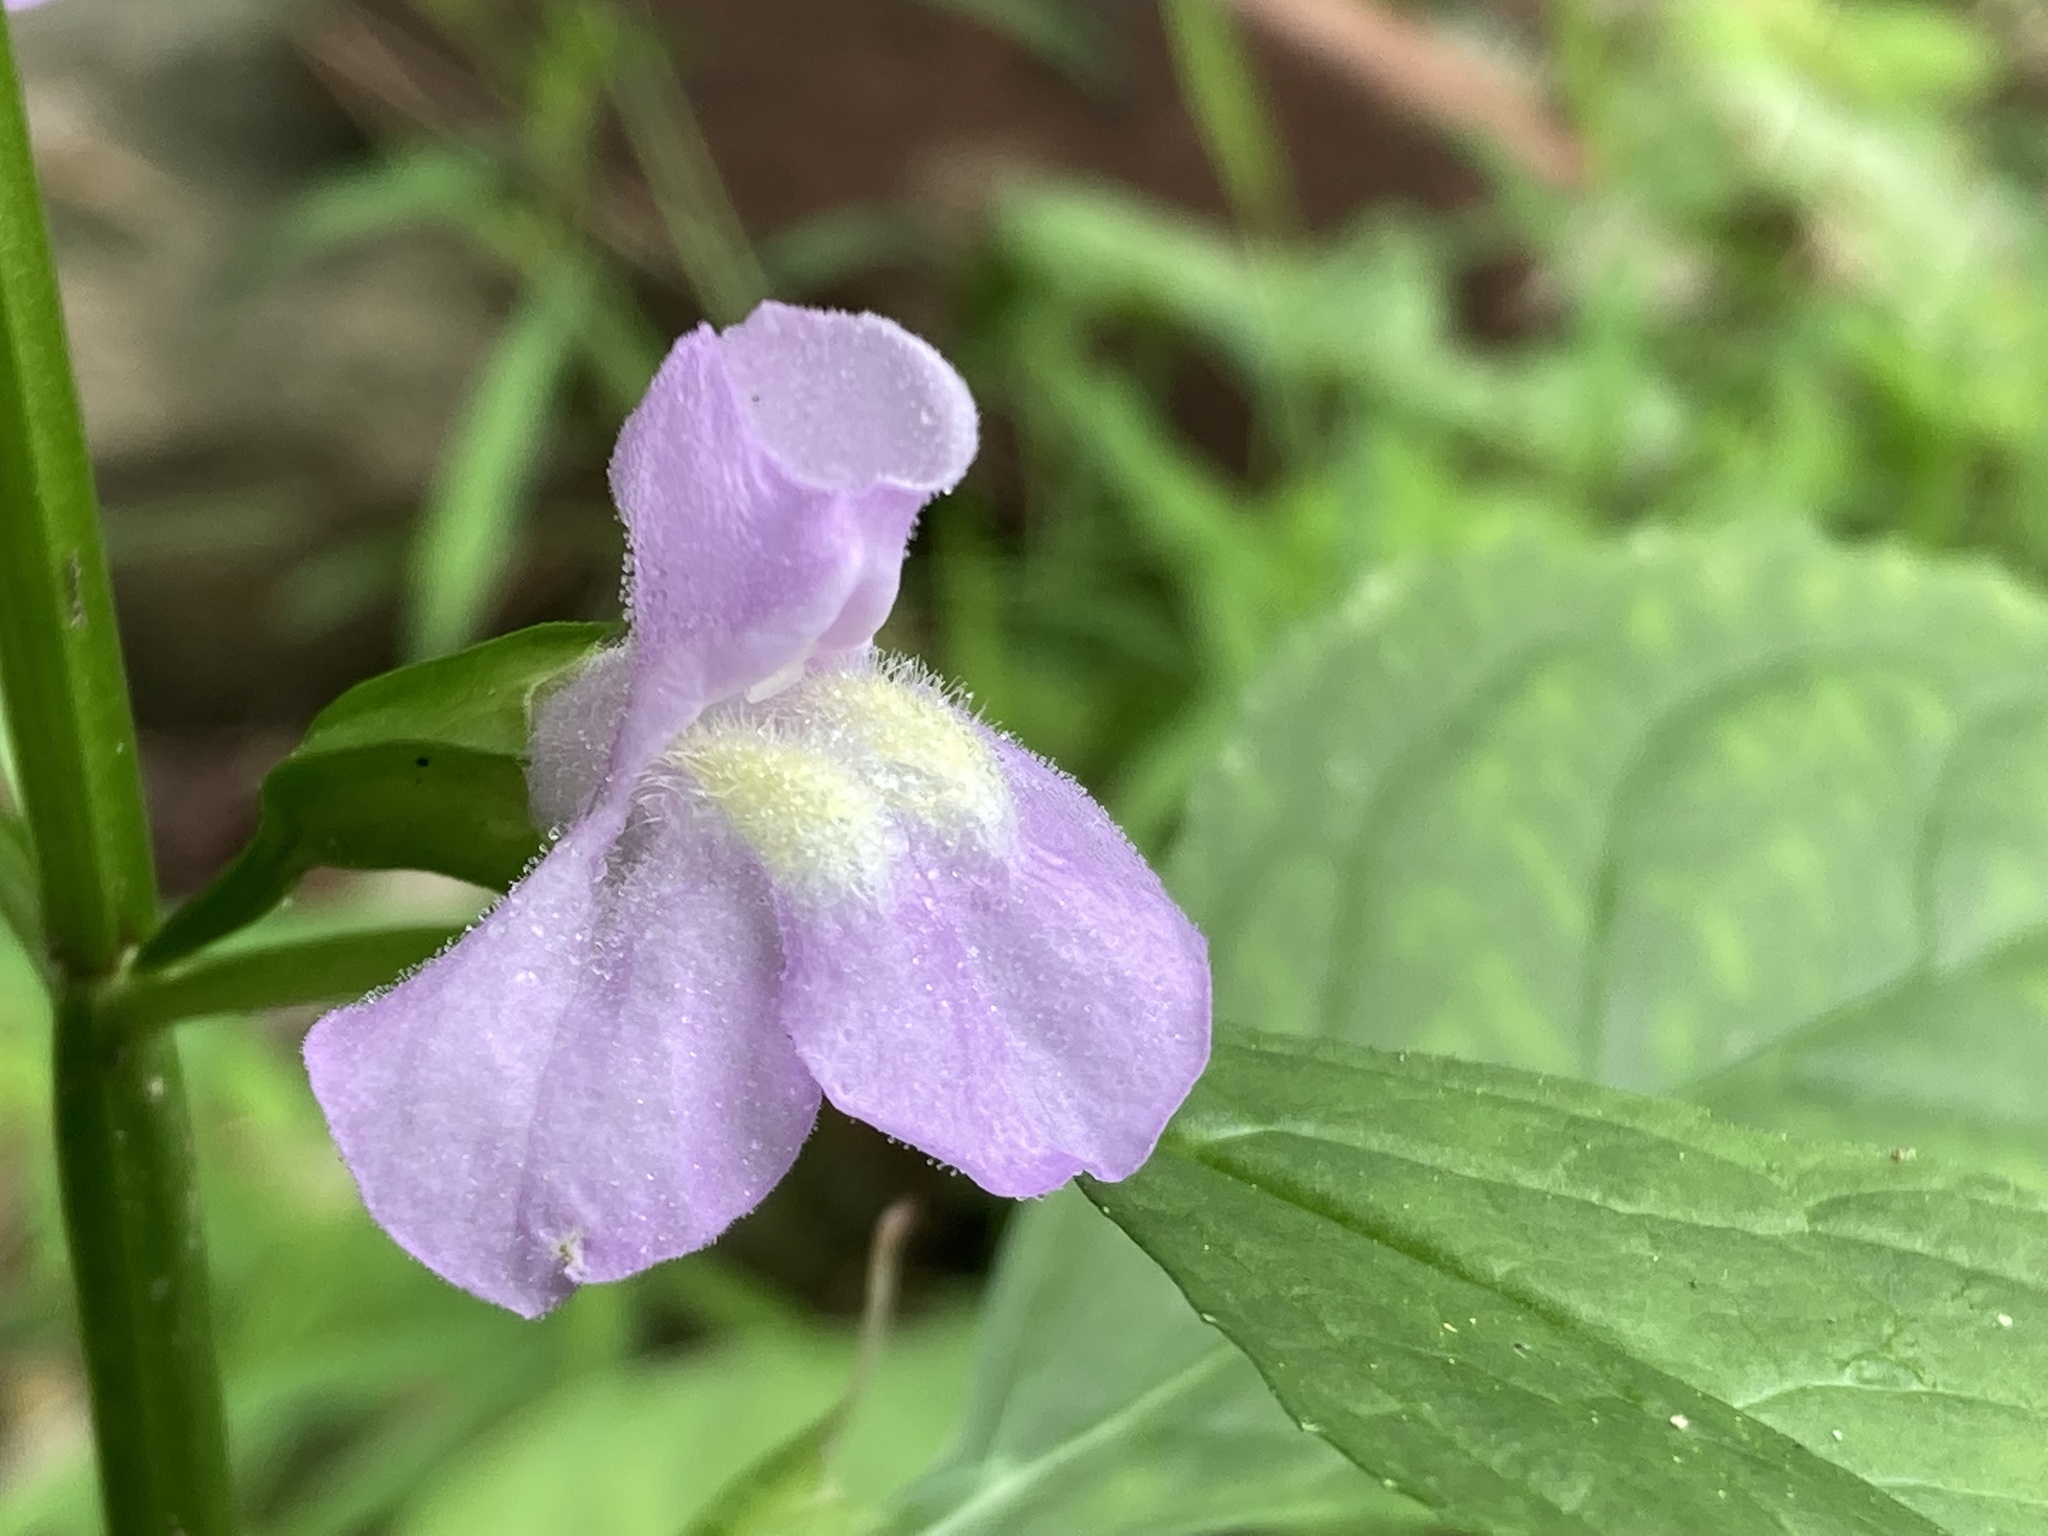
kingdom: Plantae
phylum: Tracheophyta
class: Magnoliopsida
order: Lamiales
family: Phrymaceae
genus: Mimulus
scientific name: Mimulus alatus
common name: Sharp-wing monkey-flower
